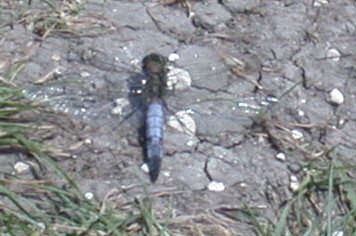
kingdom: Animalia
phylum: Arthropoda
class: Insecta
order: Odonata
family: Libellulidae
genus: Orthetrum
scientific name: Orthetrum cancellatum
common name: Black-tailed skimmer
